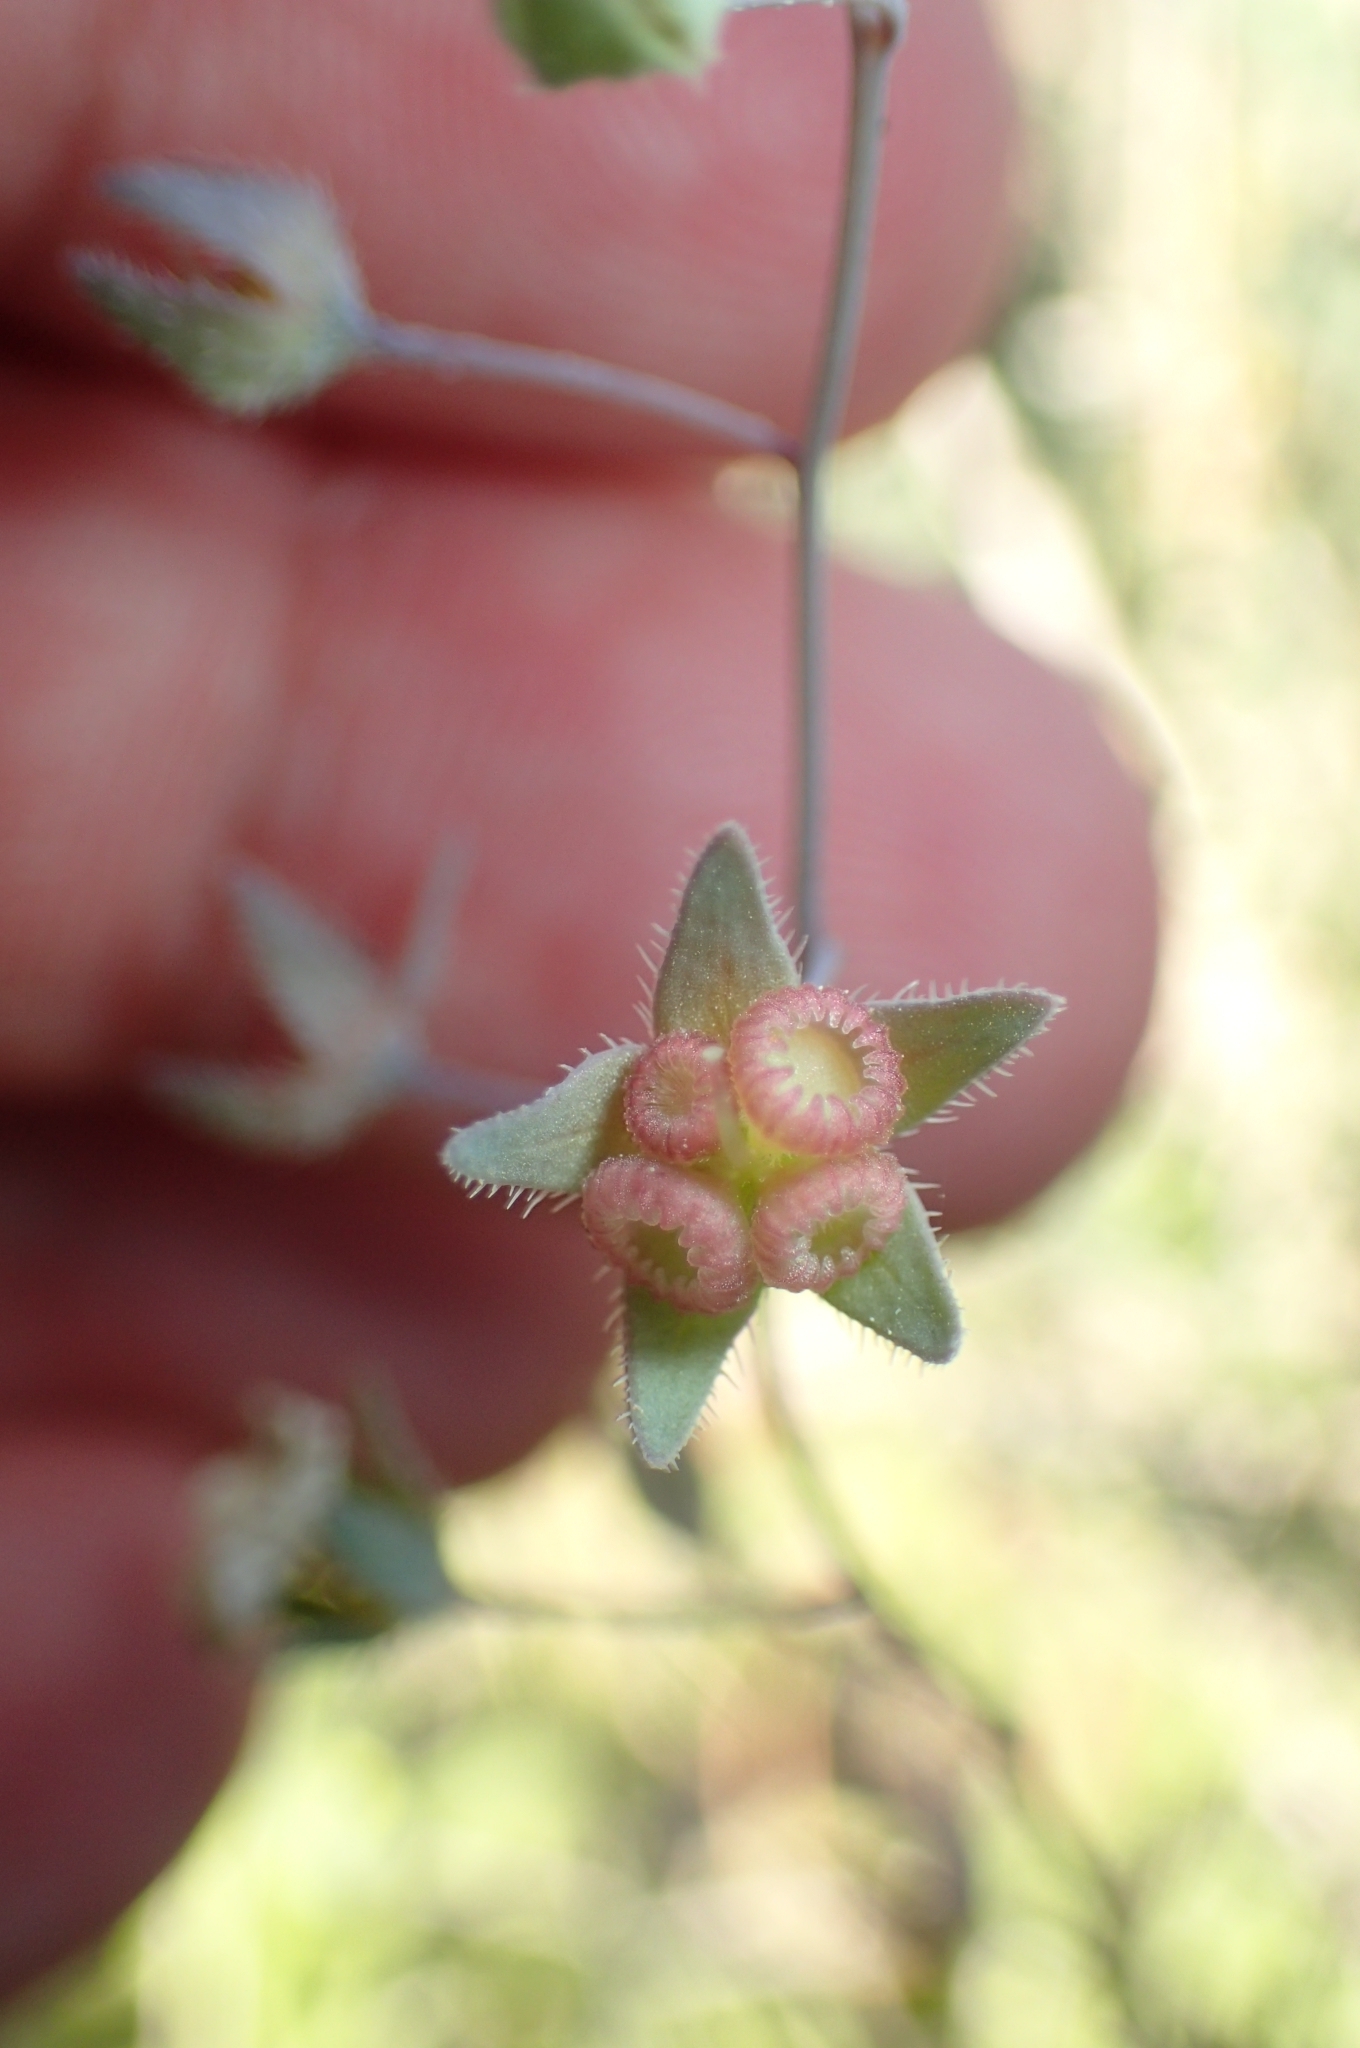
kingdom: Plantae
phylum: Tracheophyta
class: Magnoliopsida
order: Boraginales
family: Boraginaceae
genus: Iberodes
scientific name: Iberodes linifolia
